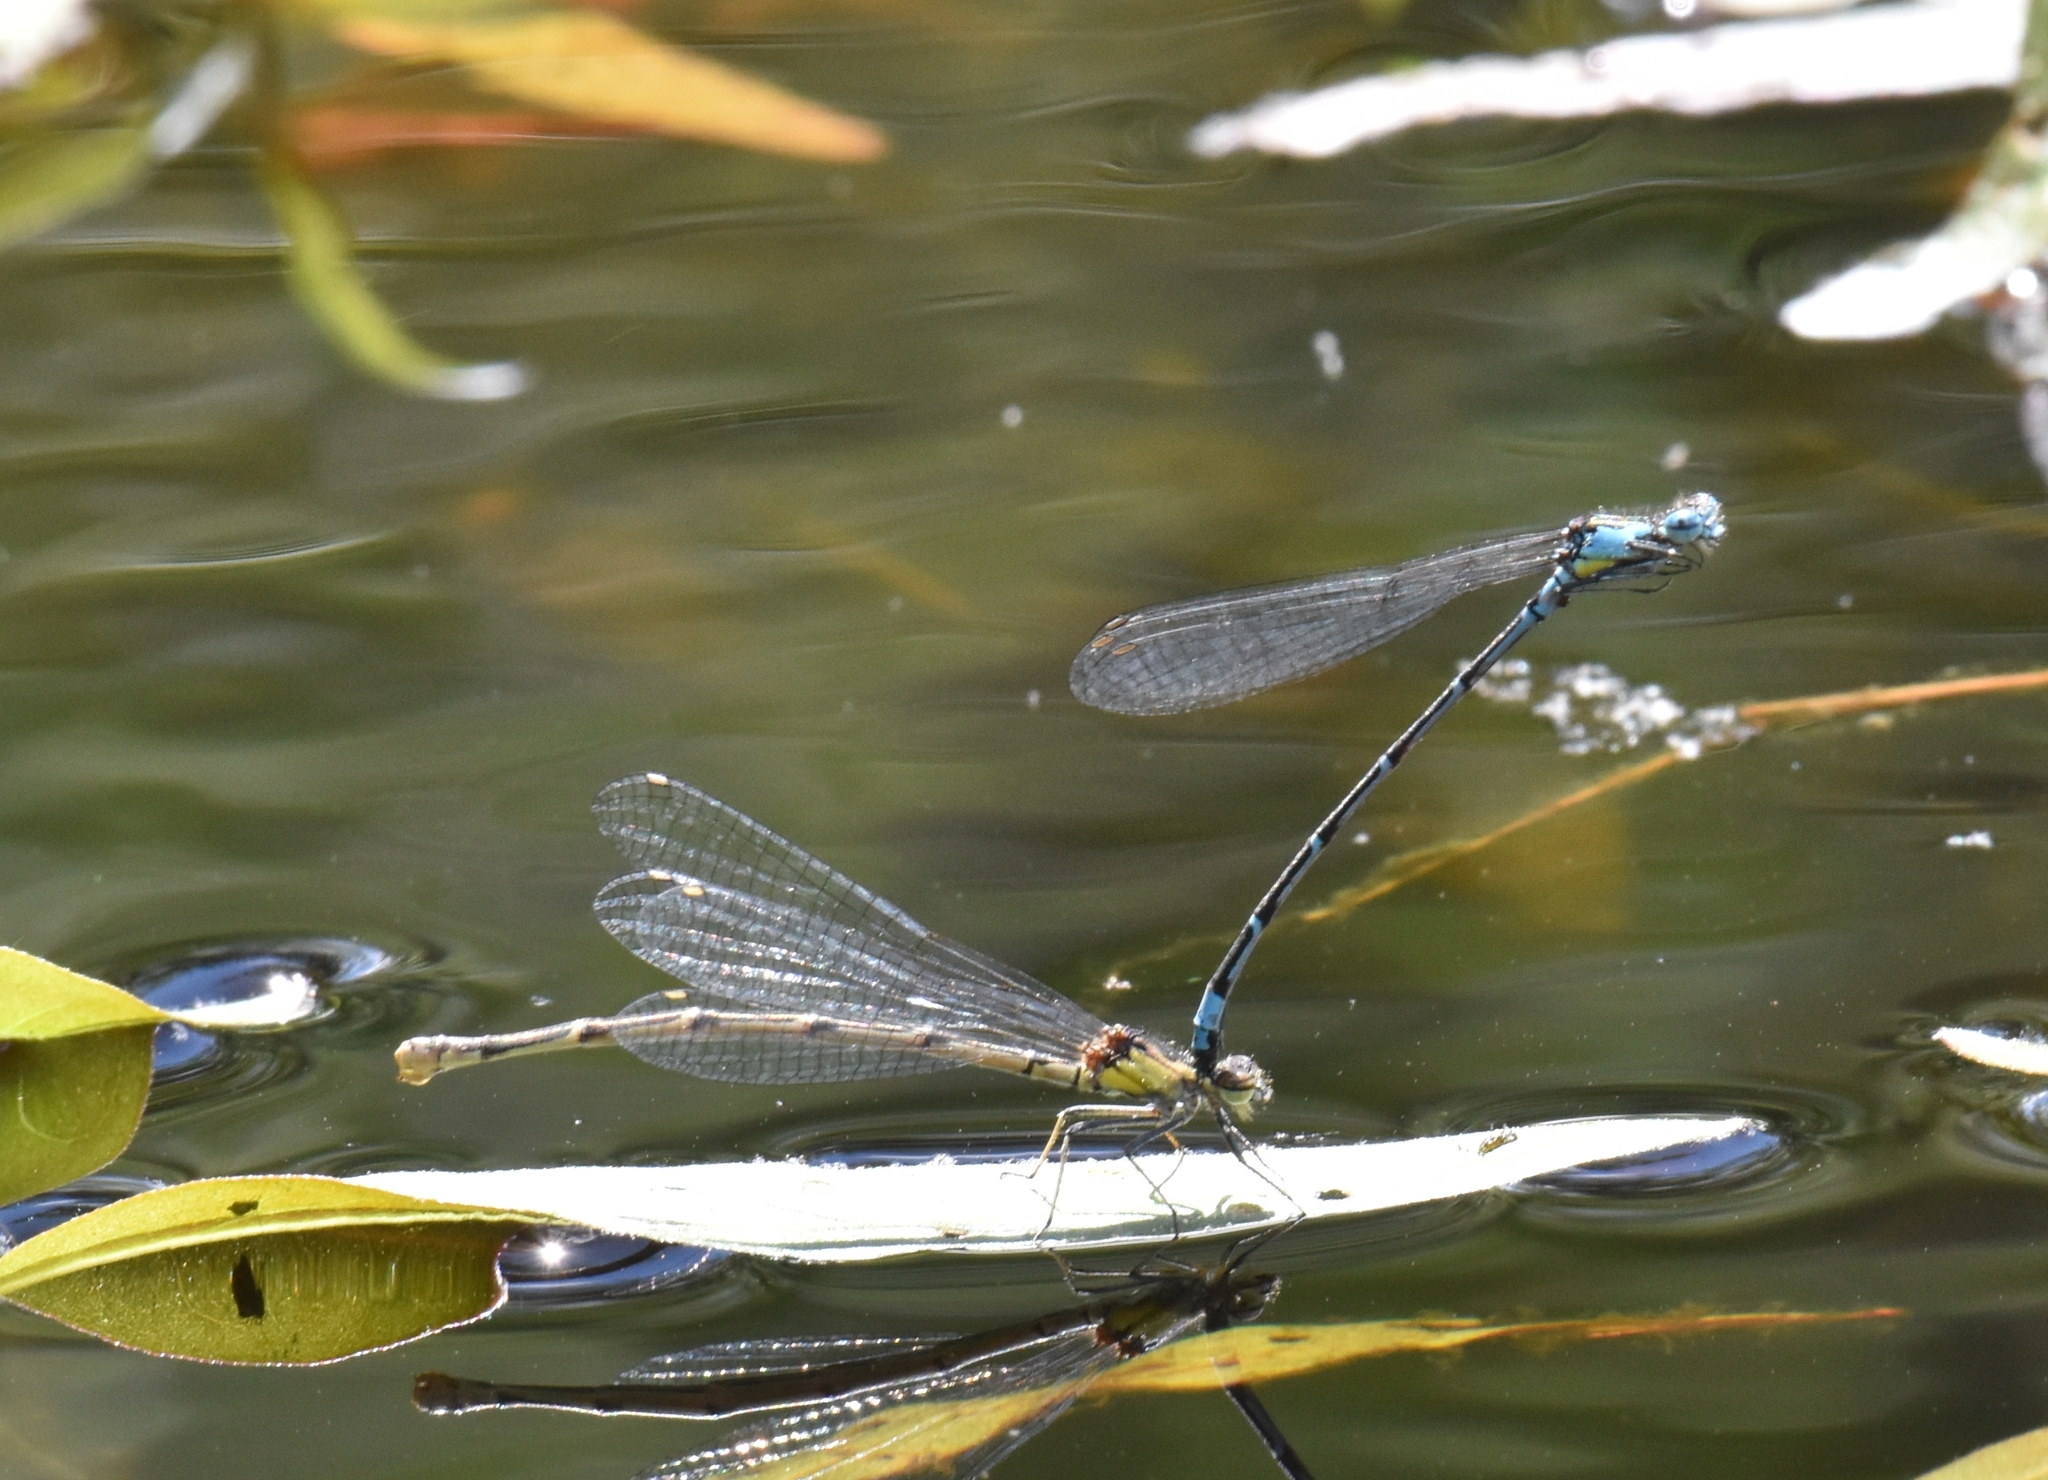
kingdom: Animalia
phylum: Arthropoda
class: Insecta
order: Odonata
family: Coenagrionidae
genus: Chromagrion
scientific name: Chromagrion conditum
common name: Aurora damsel
